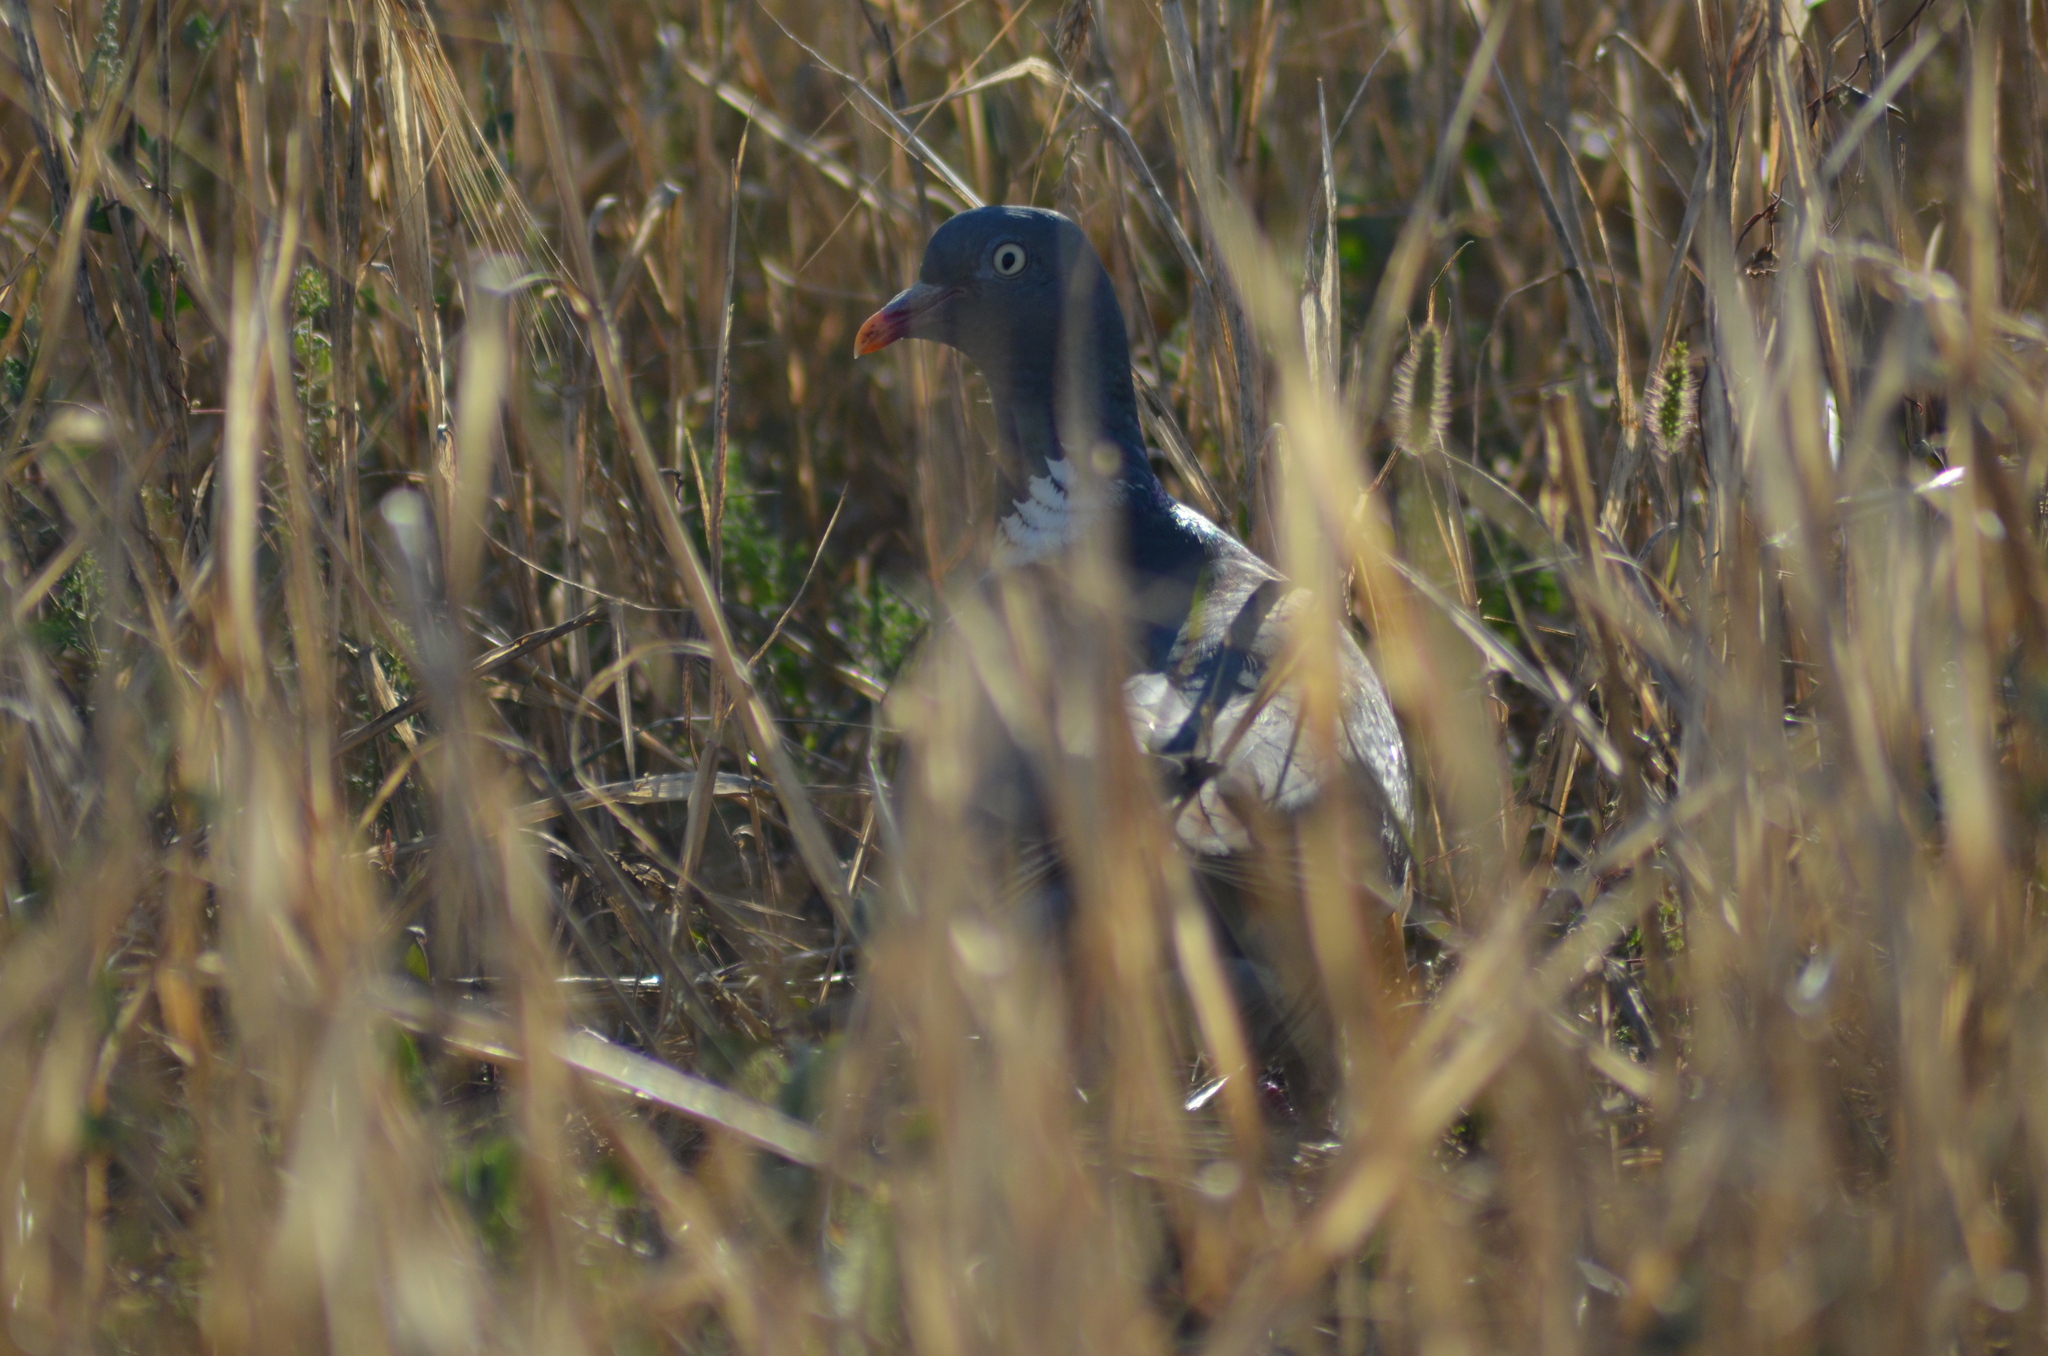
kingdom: Animalia
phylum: Chordata
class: Aves
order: Columbiformes
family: Columbidae
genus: Columba
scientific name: Columba palumbus
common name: Common wood pigeon
